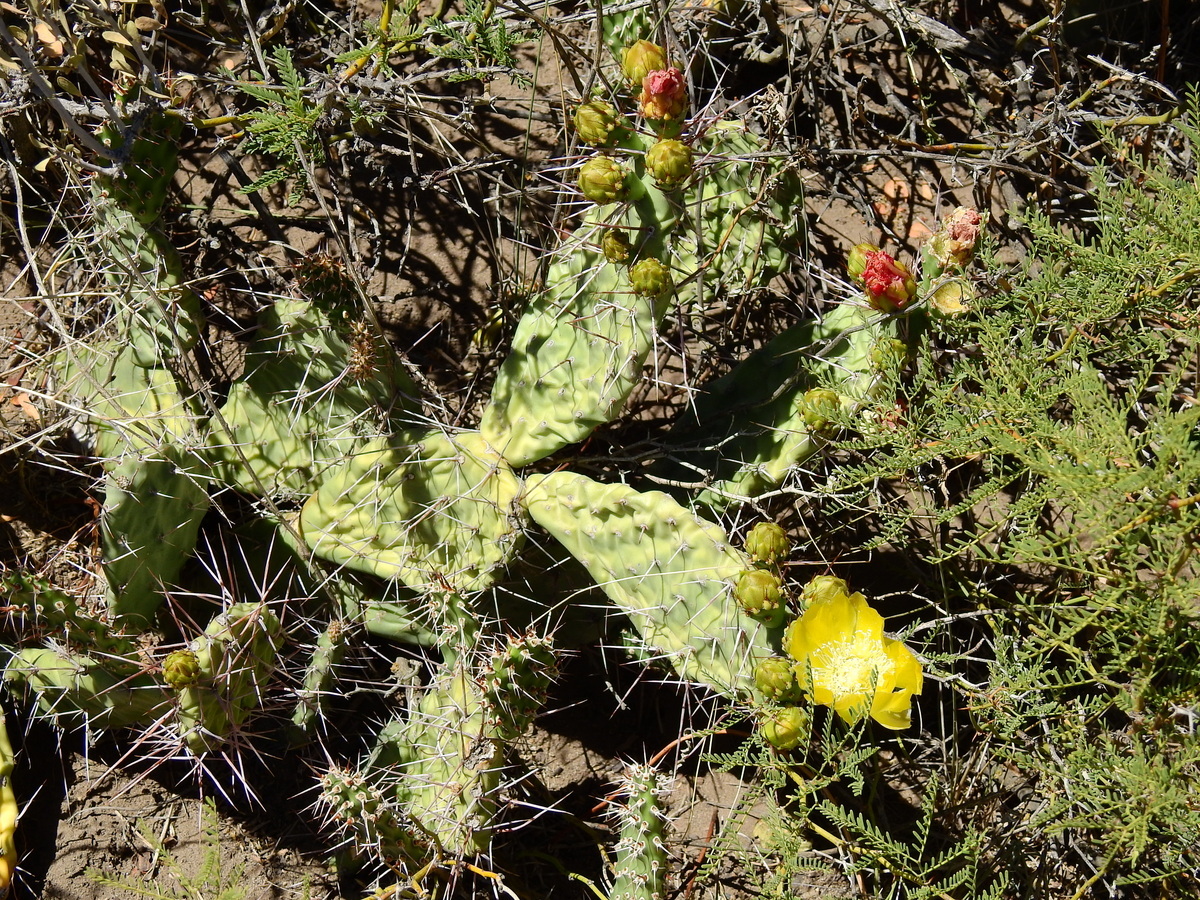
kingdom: Plantae
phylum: Tracheophyta
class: Magnoliopsida
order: Caryophyllales
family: Cactaceae
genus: Opuntia
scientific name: Opuntia sulphurea
